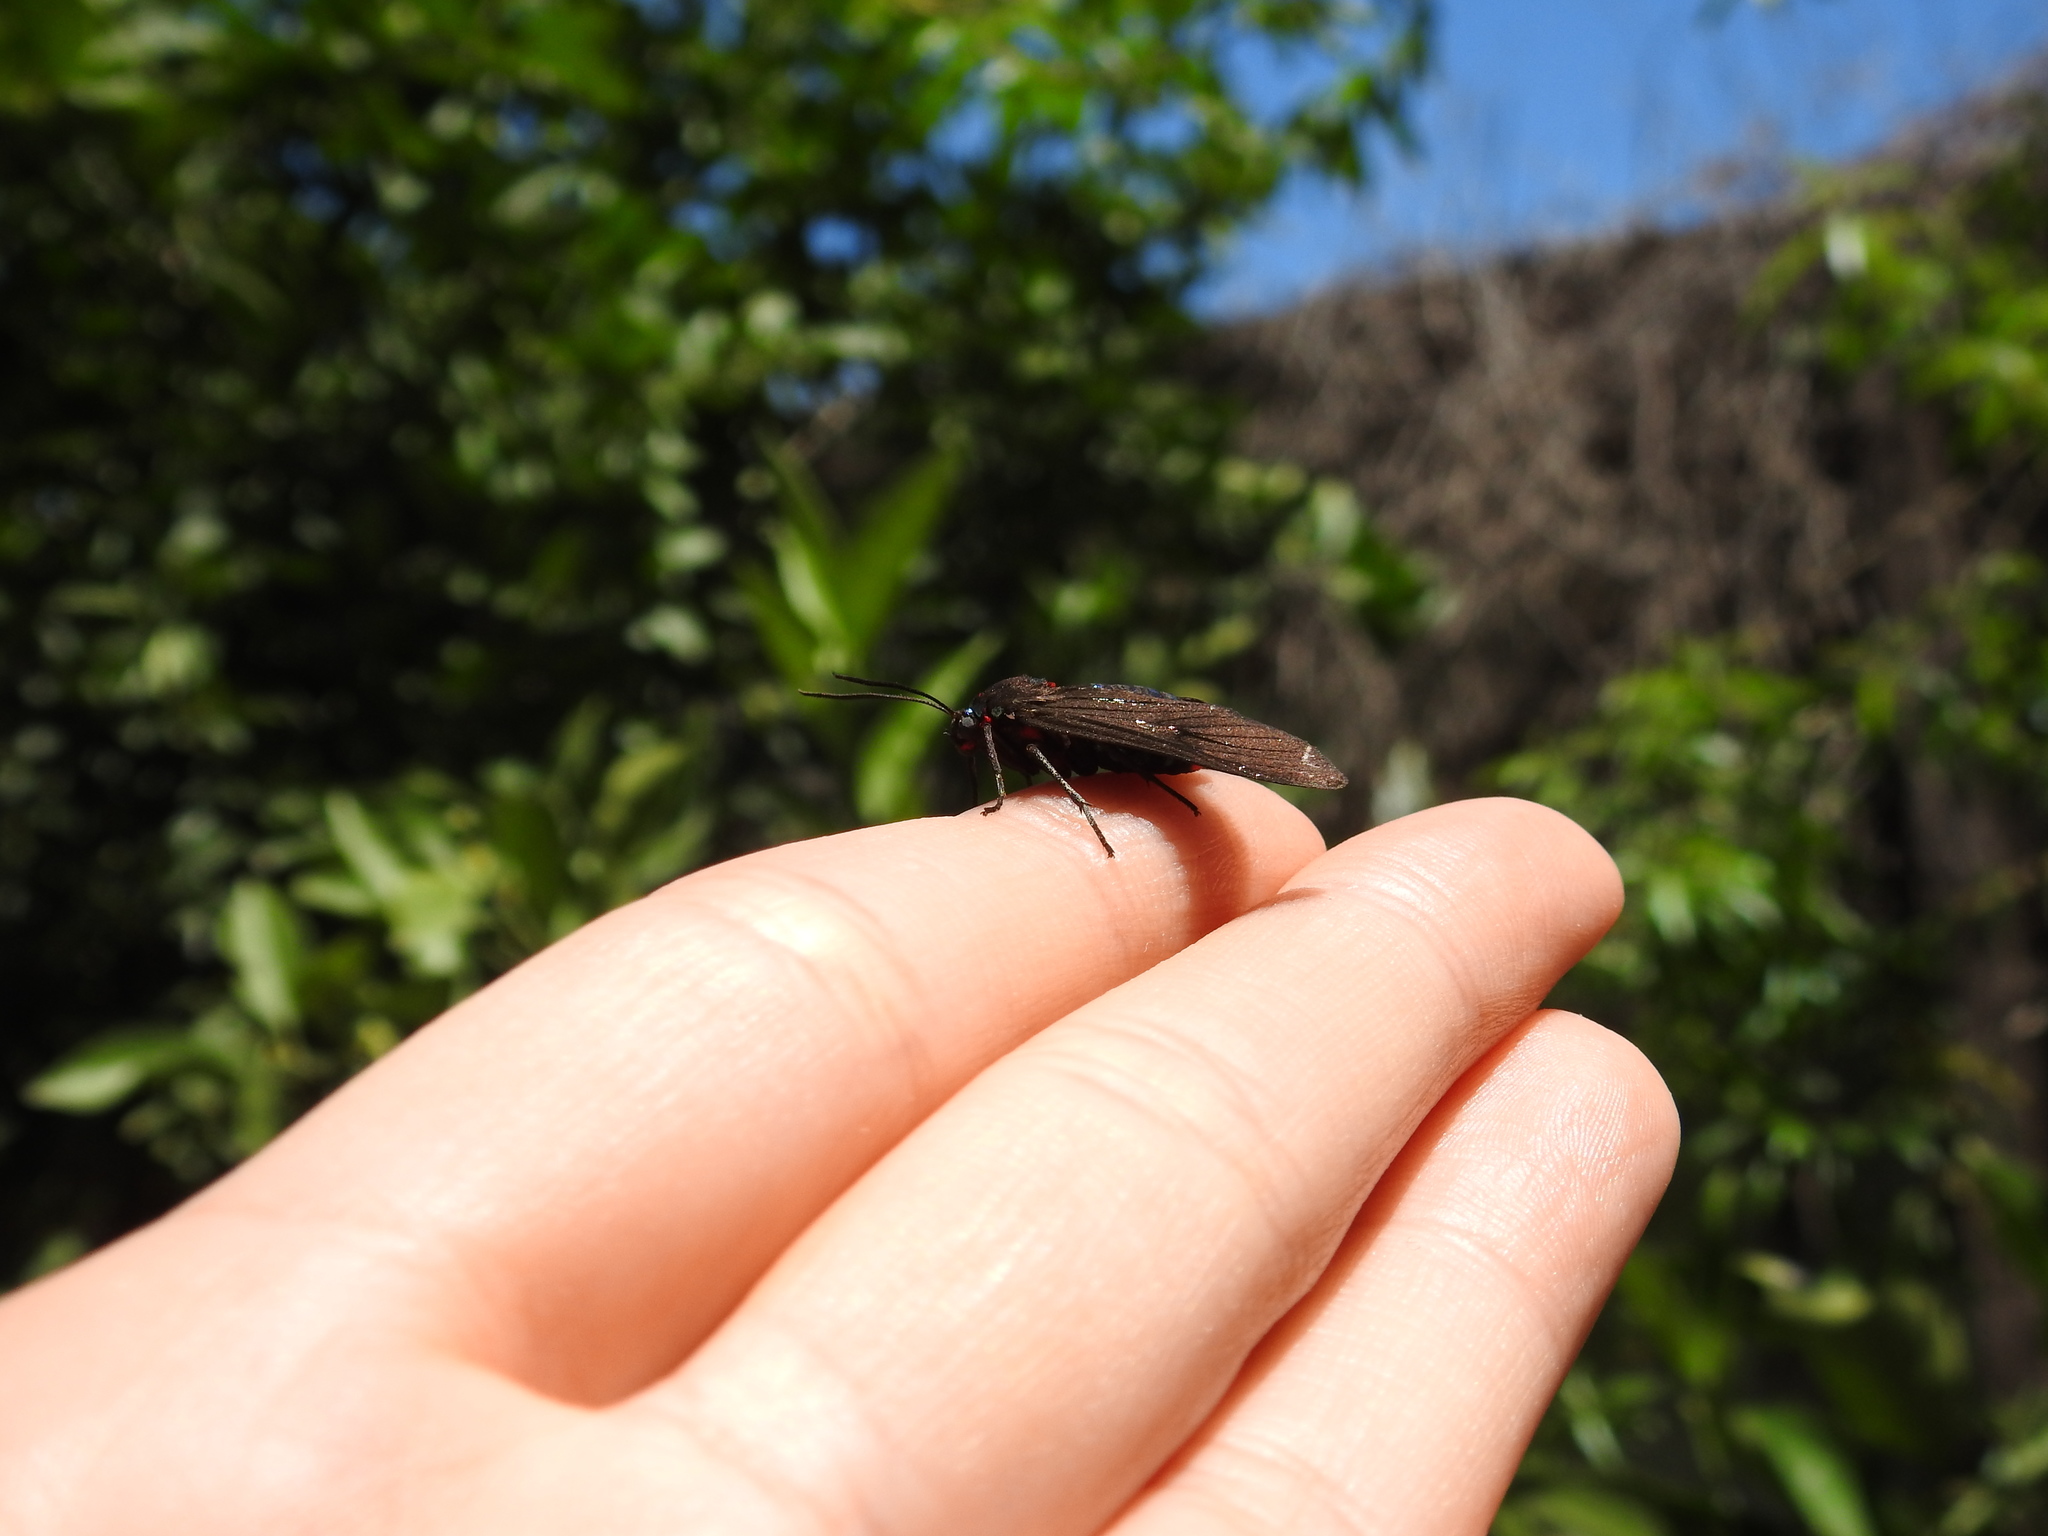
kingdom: Animalia
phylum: Arthropoda
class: Insecta
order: Lepidoptera
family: Erebidae
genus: Saurita
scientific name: Saurita cassandra
